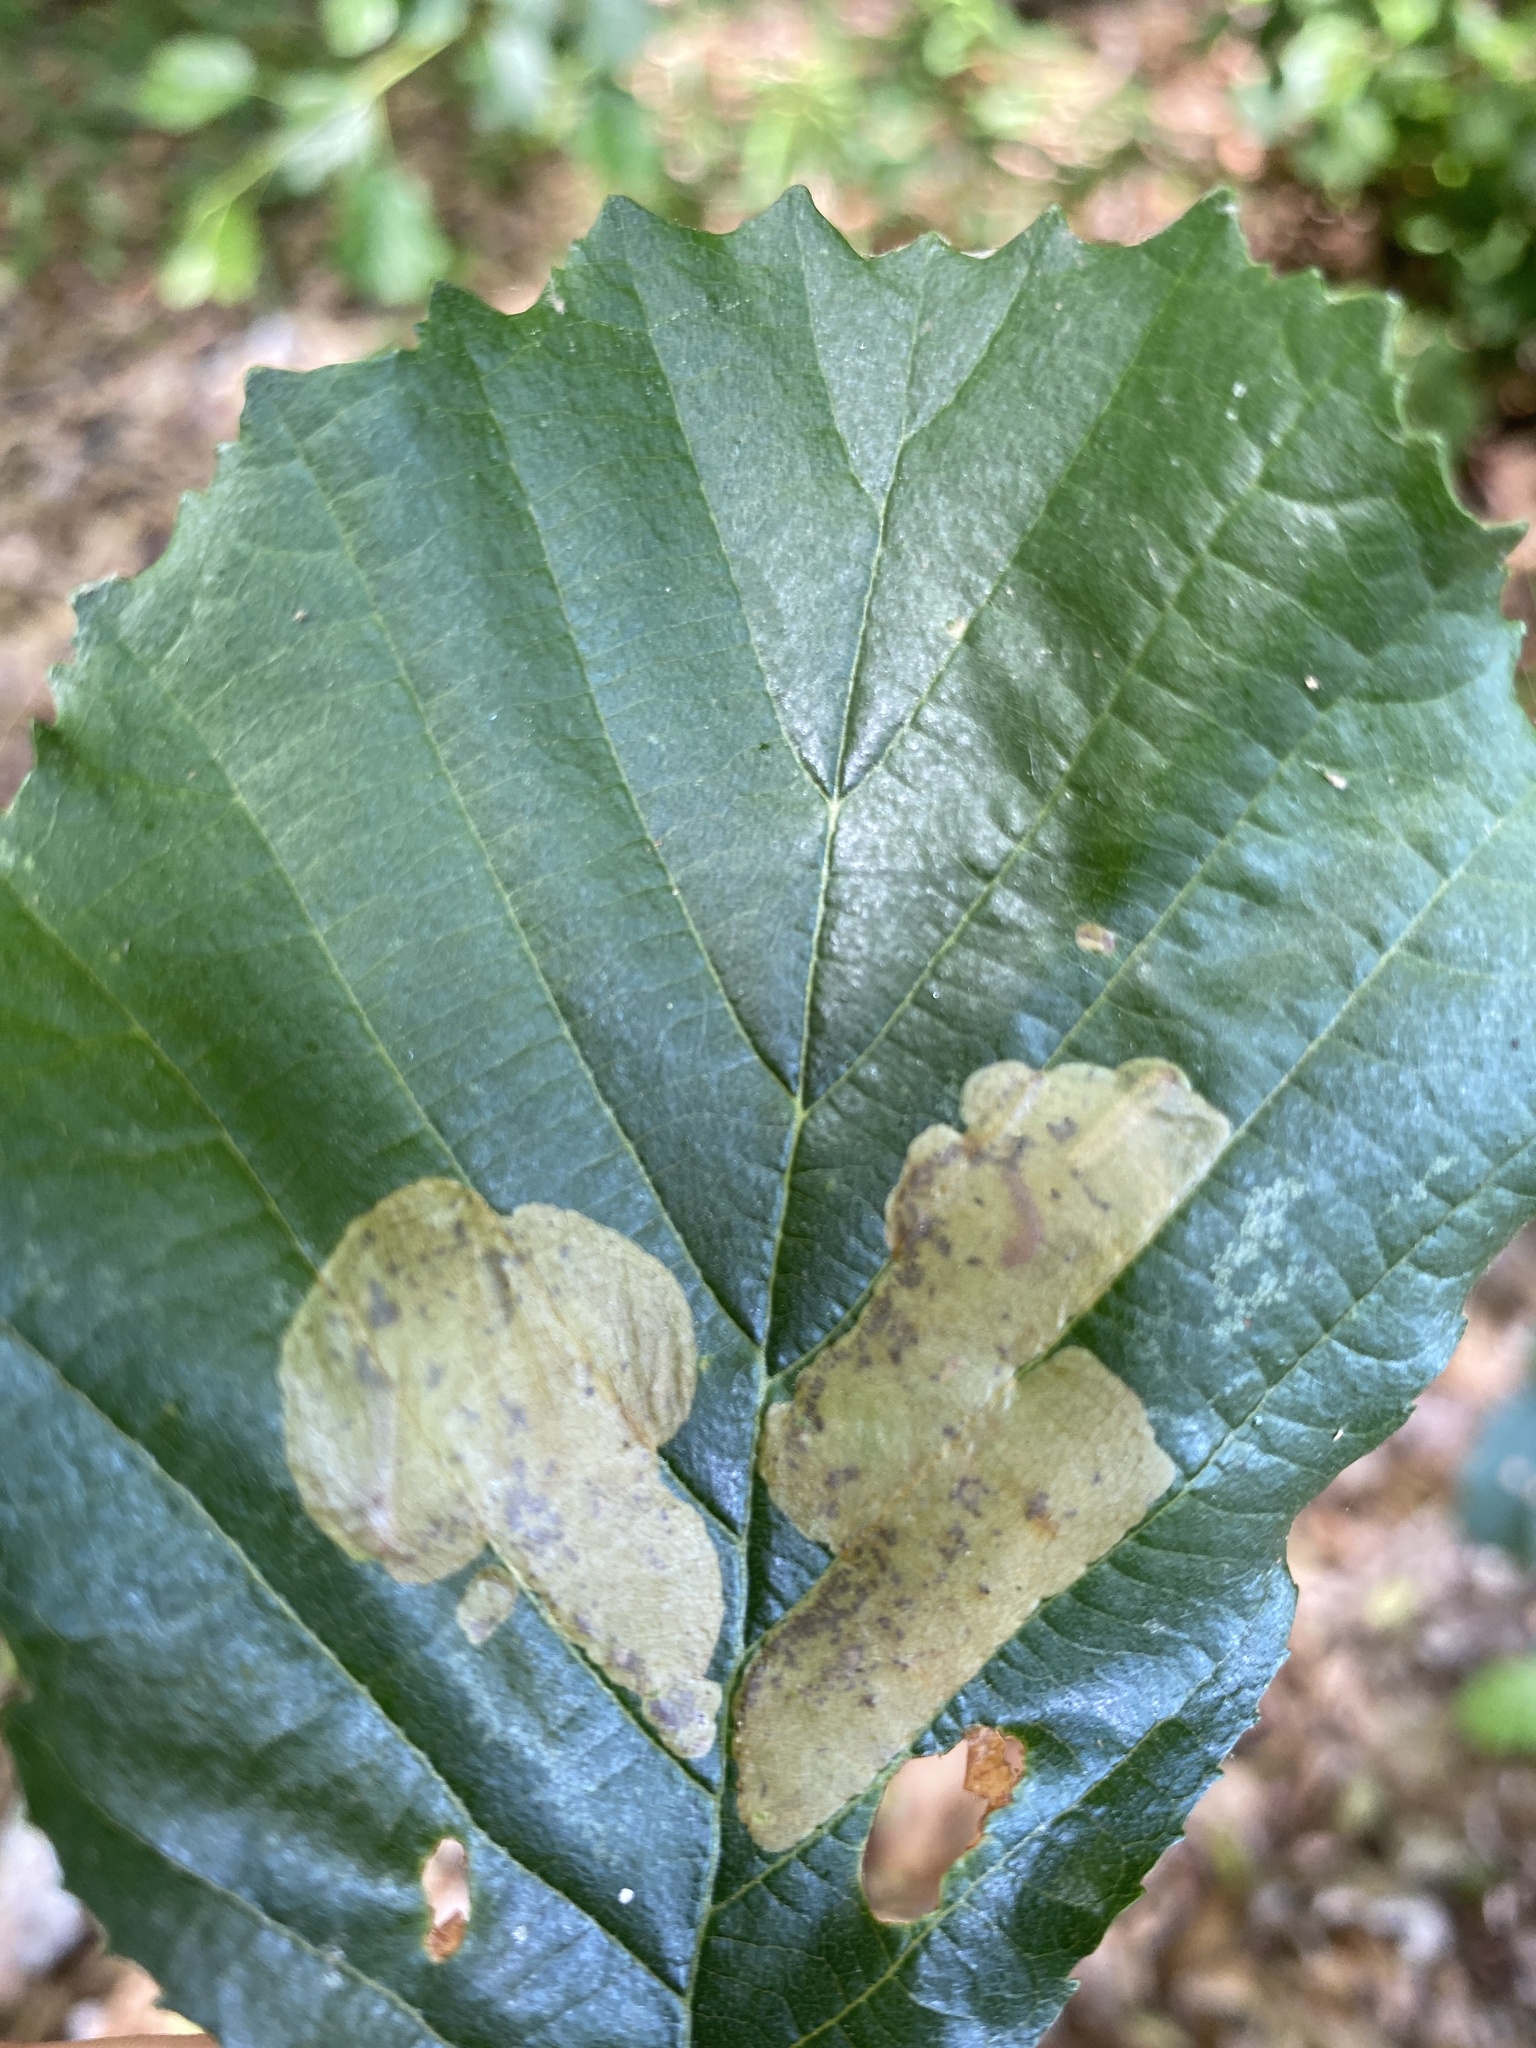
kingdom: Animalia
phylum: Arthropoda
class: Insecta
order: Hymenoptera
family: Tenthredinidae
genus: Fenusa
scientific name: Fenusa dohrnii
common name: European alder leafminer
